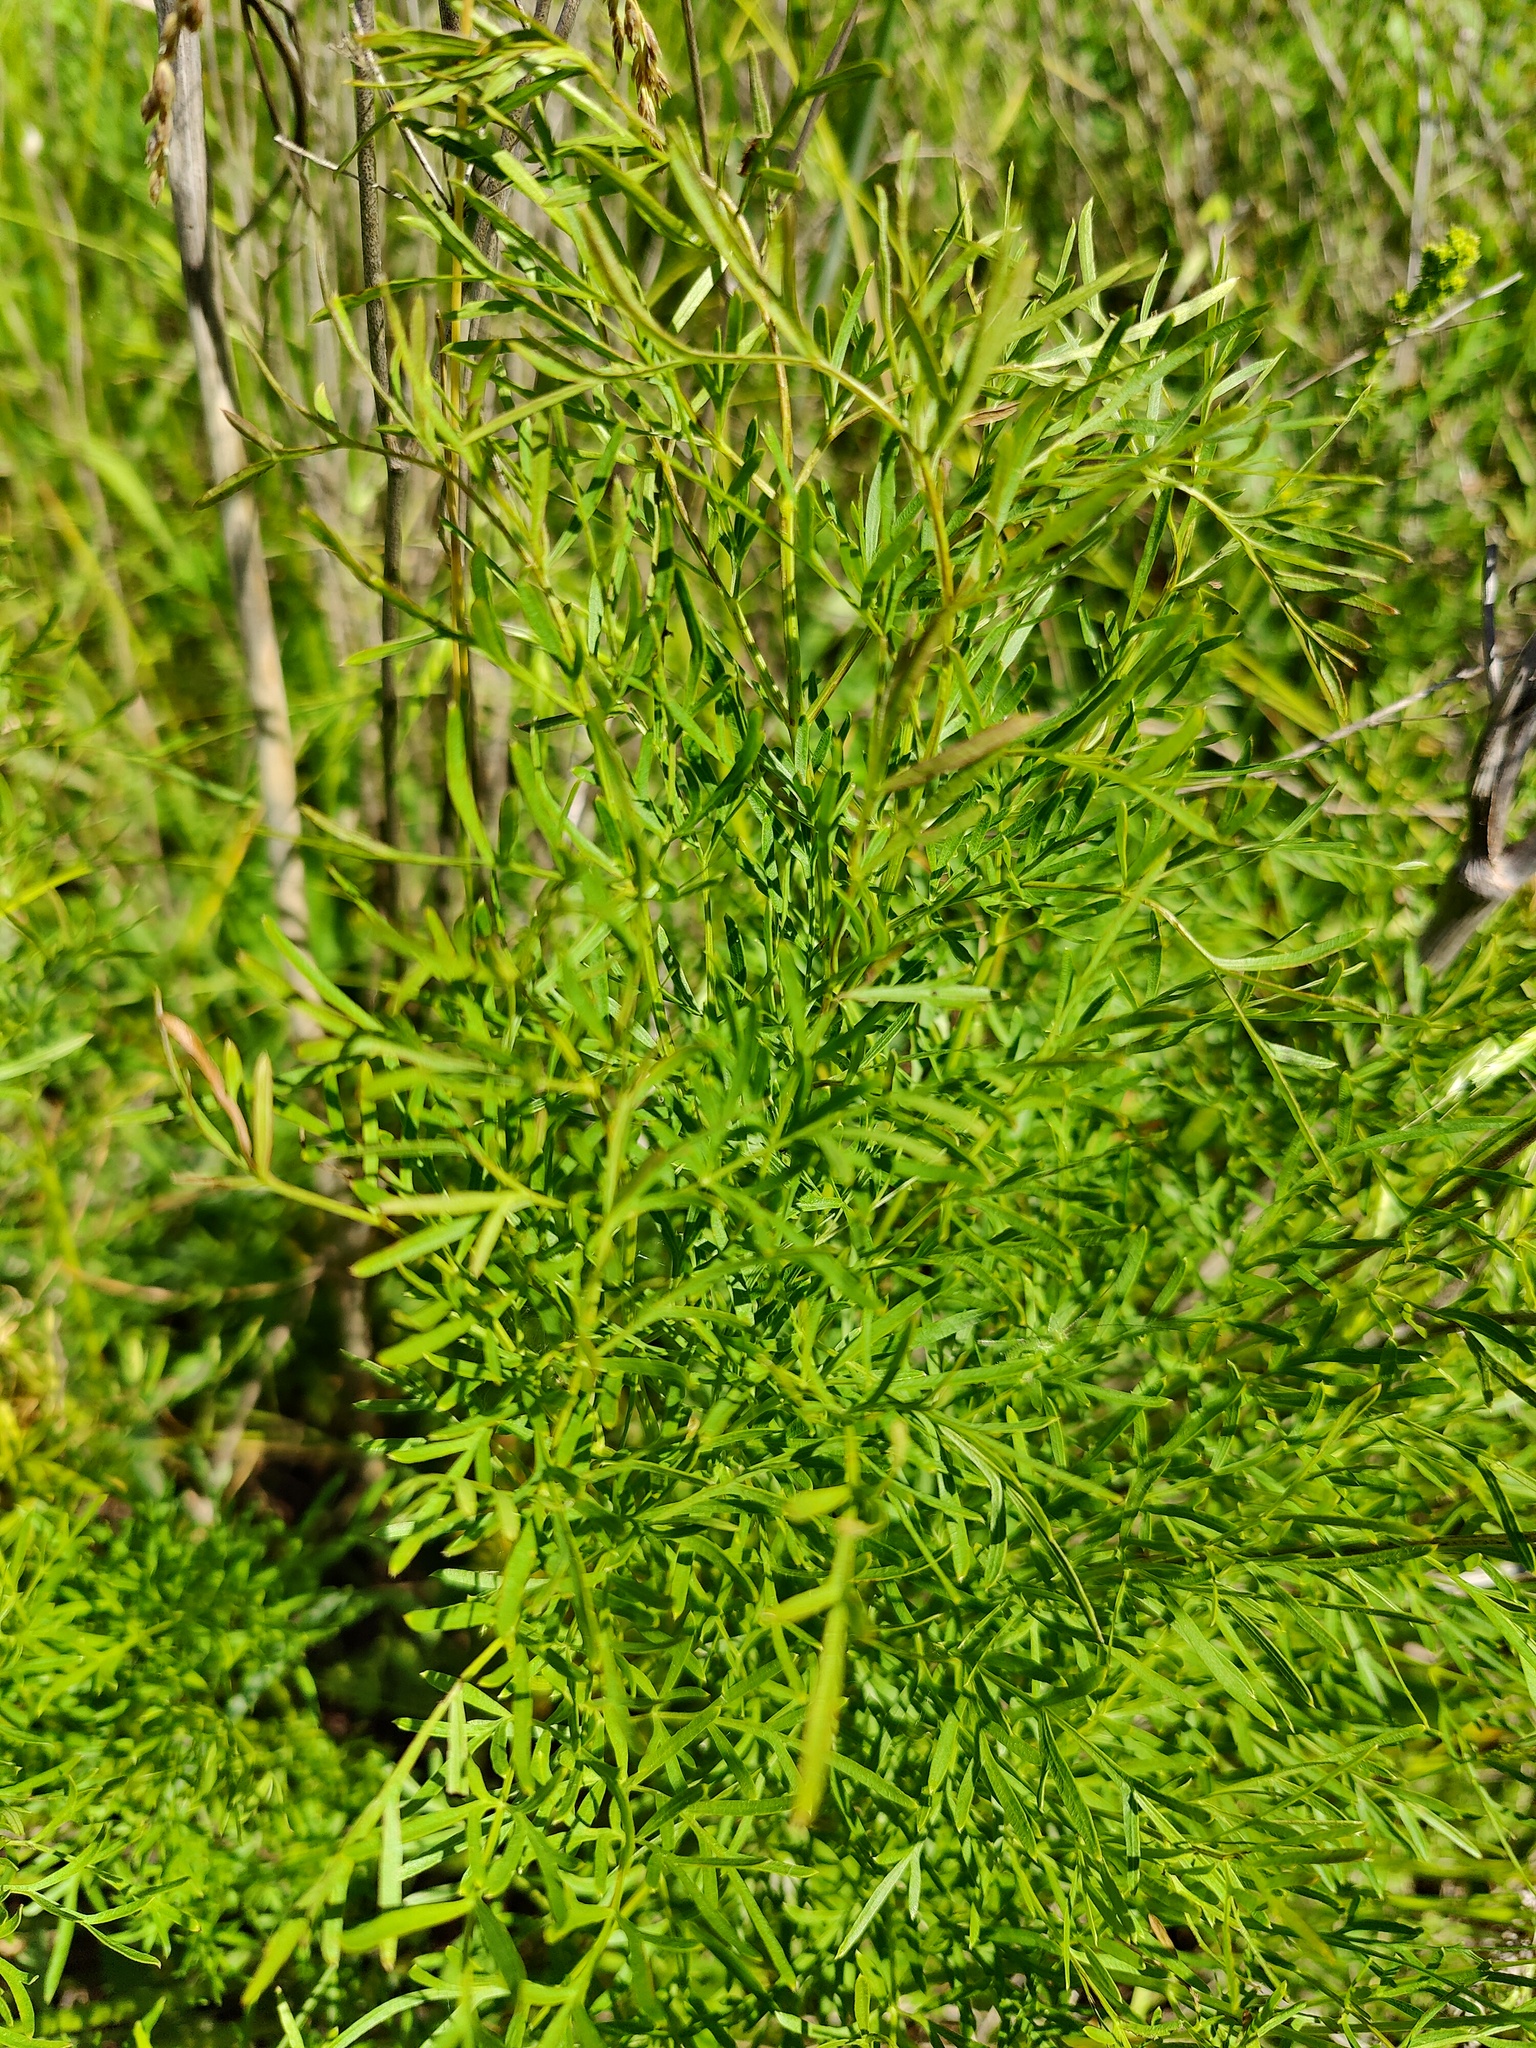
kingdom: Plantae
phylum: Tracheophyta
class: Magnoliopsida
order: Apiales
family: Apiaceae
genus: Silaum
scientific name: Silaum silaus
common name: Pepper-saxifrage
